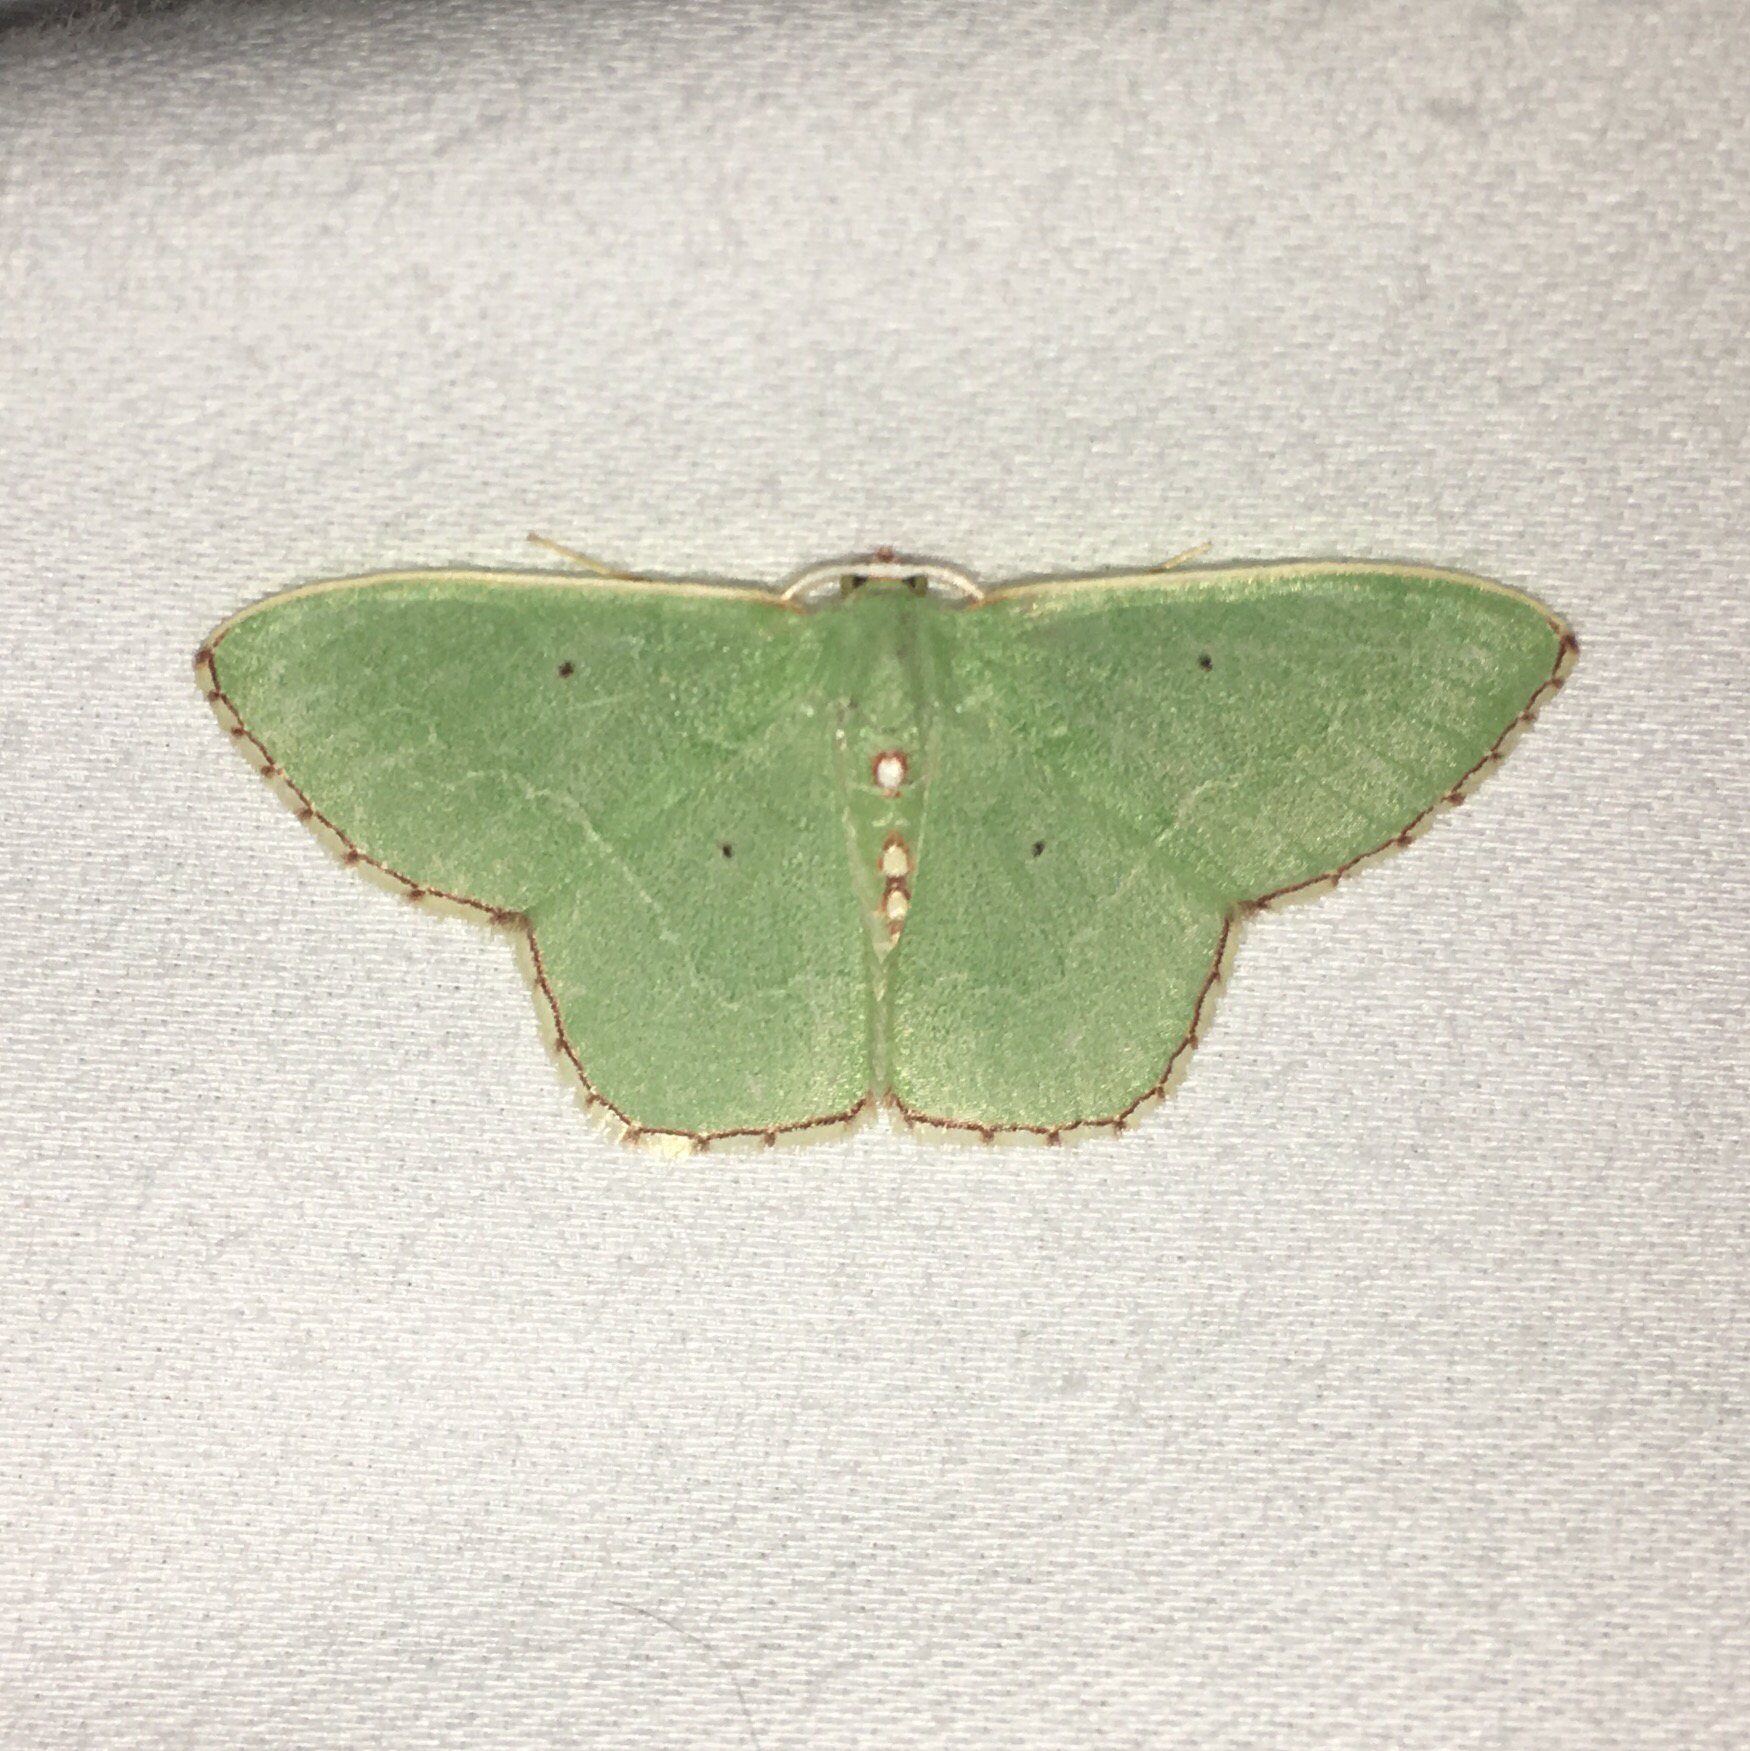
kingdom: Animalia
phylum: Arthropoda
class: Insecta
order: Lepidoptera
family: Geometridae
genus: Nemoria
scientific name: Nemoria lixaria
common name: Red-bordered emerald
